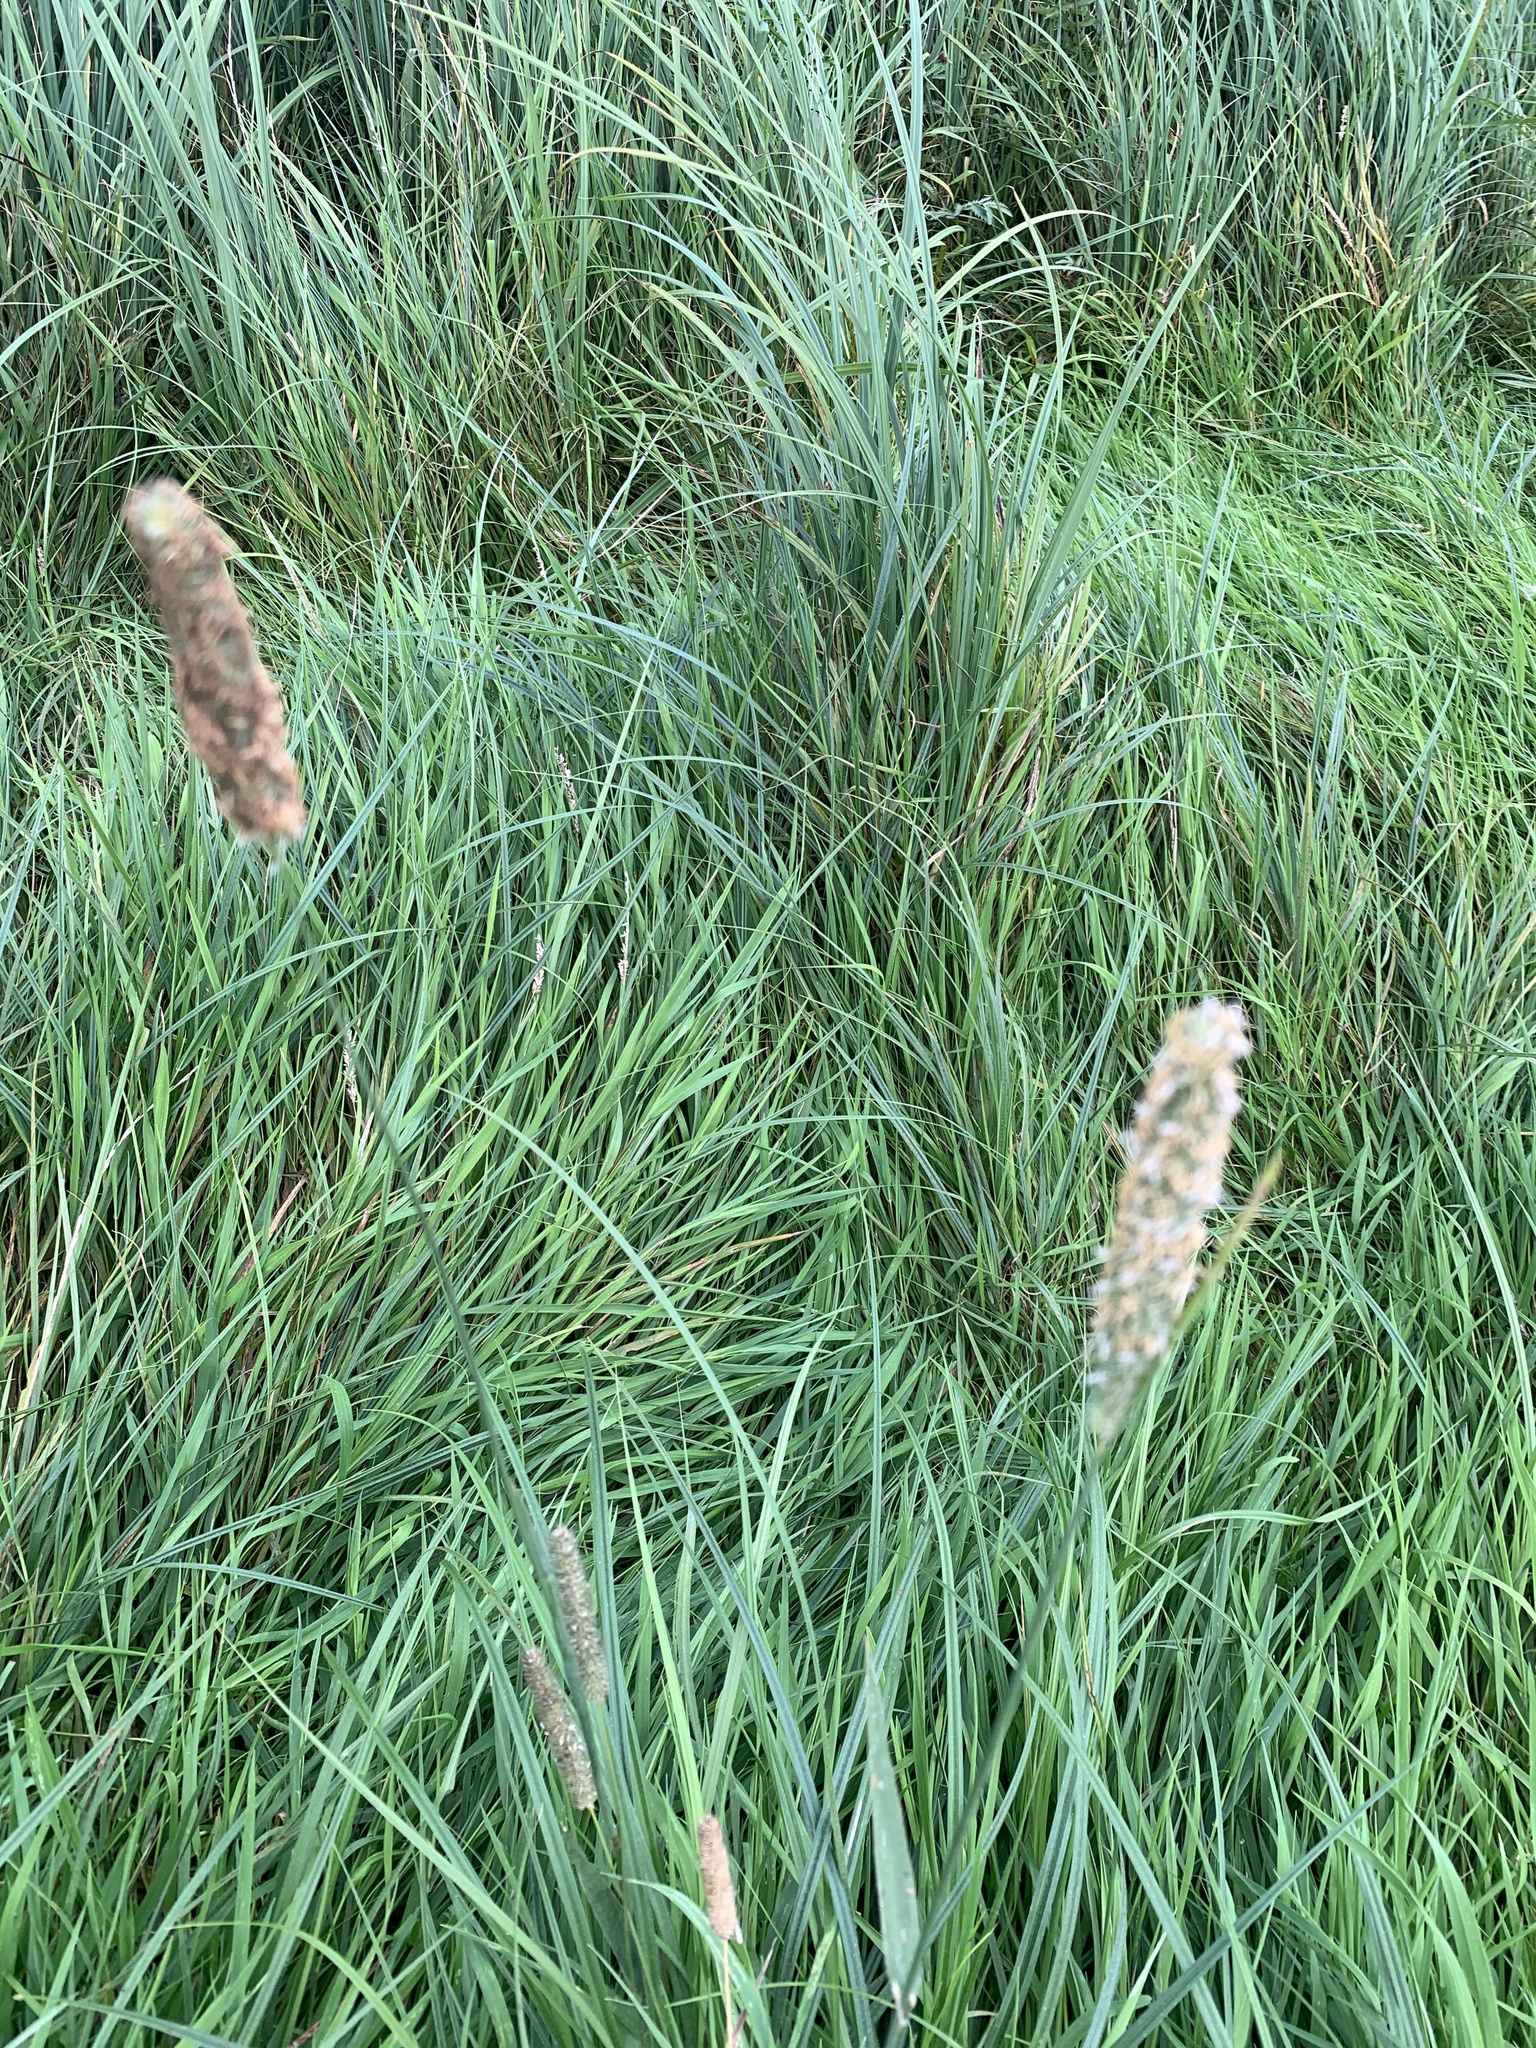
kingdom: Plantae
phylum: Tracheophyta
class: Liliopsida
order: Poales
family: Poaceae
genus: Alopecurus
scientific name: Alopecurus pratensis
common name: Meadow foxtail
